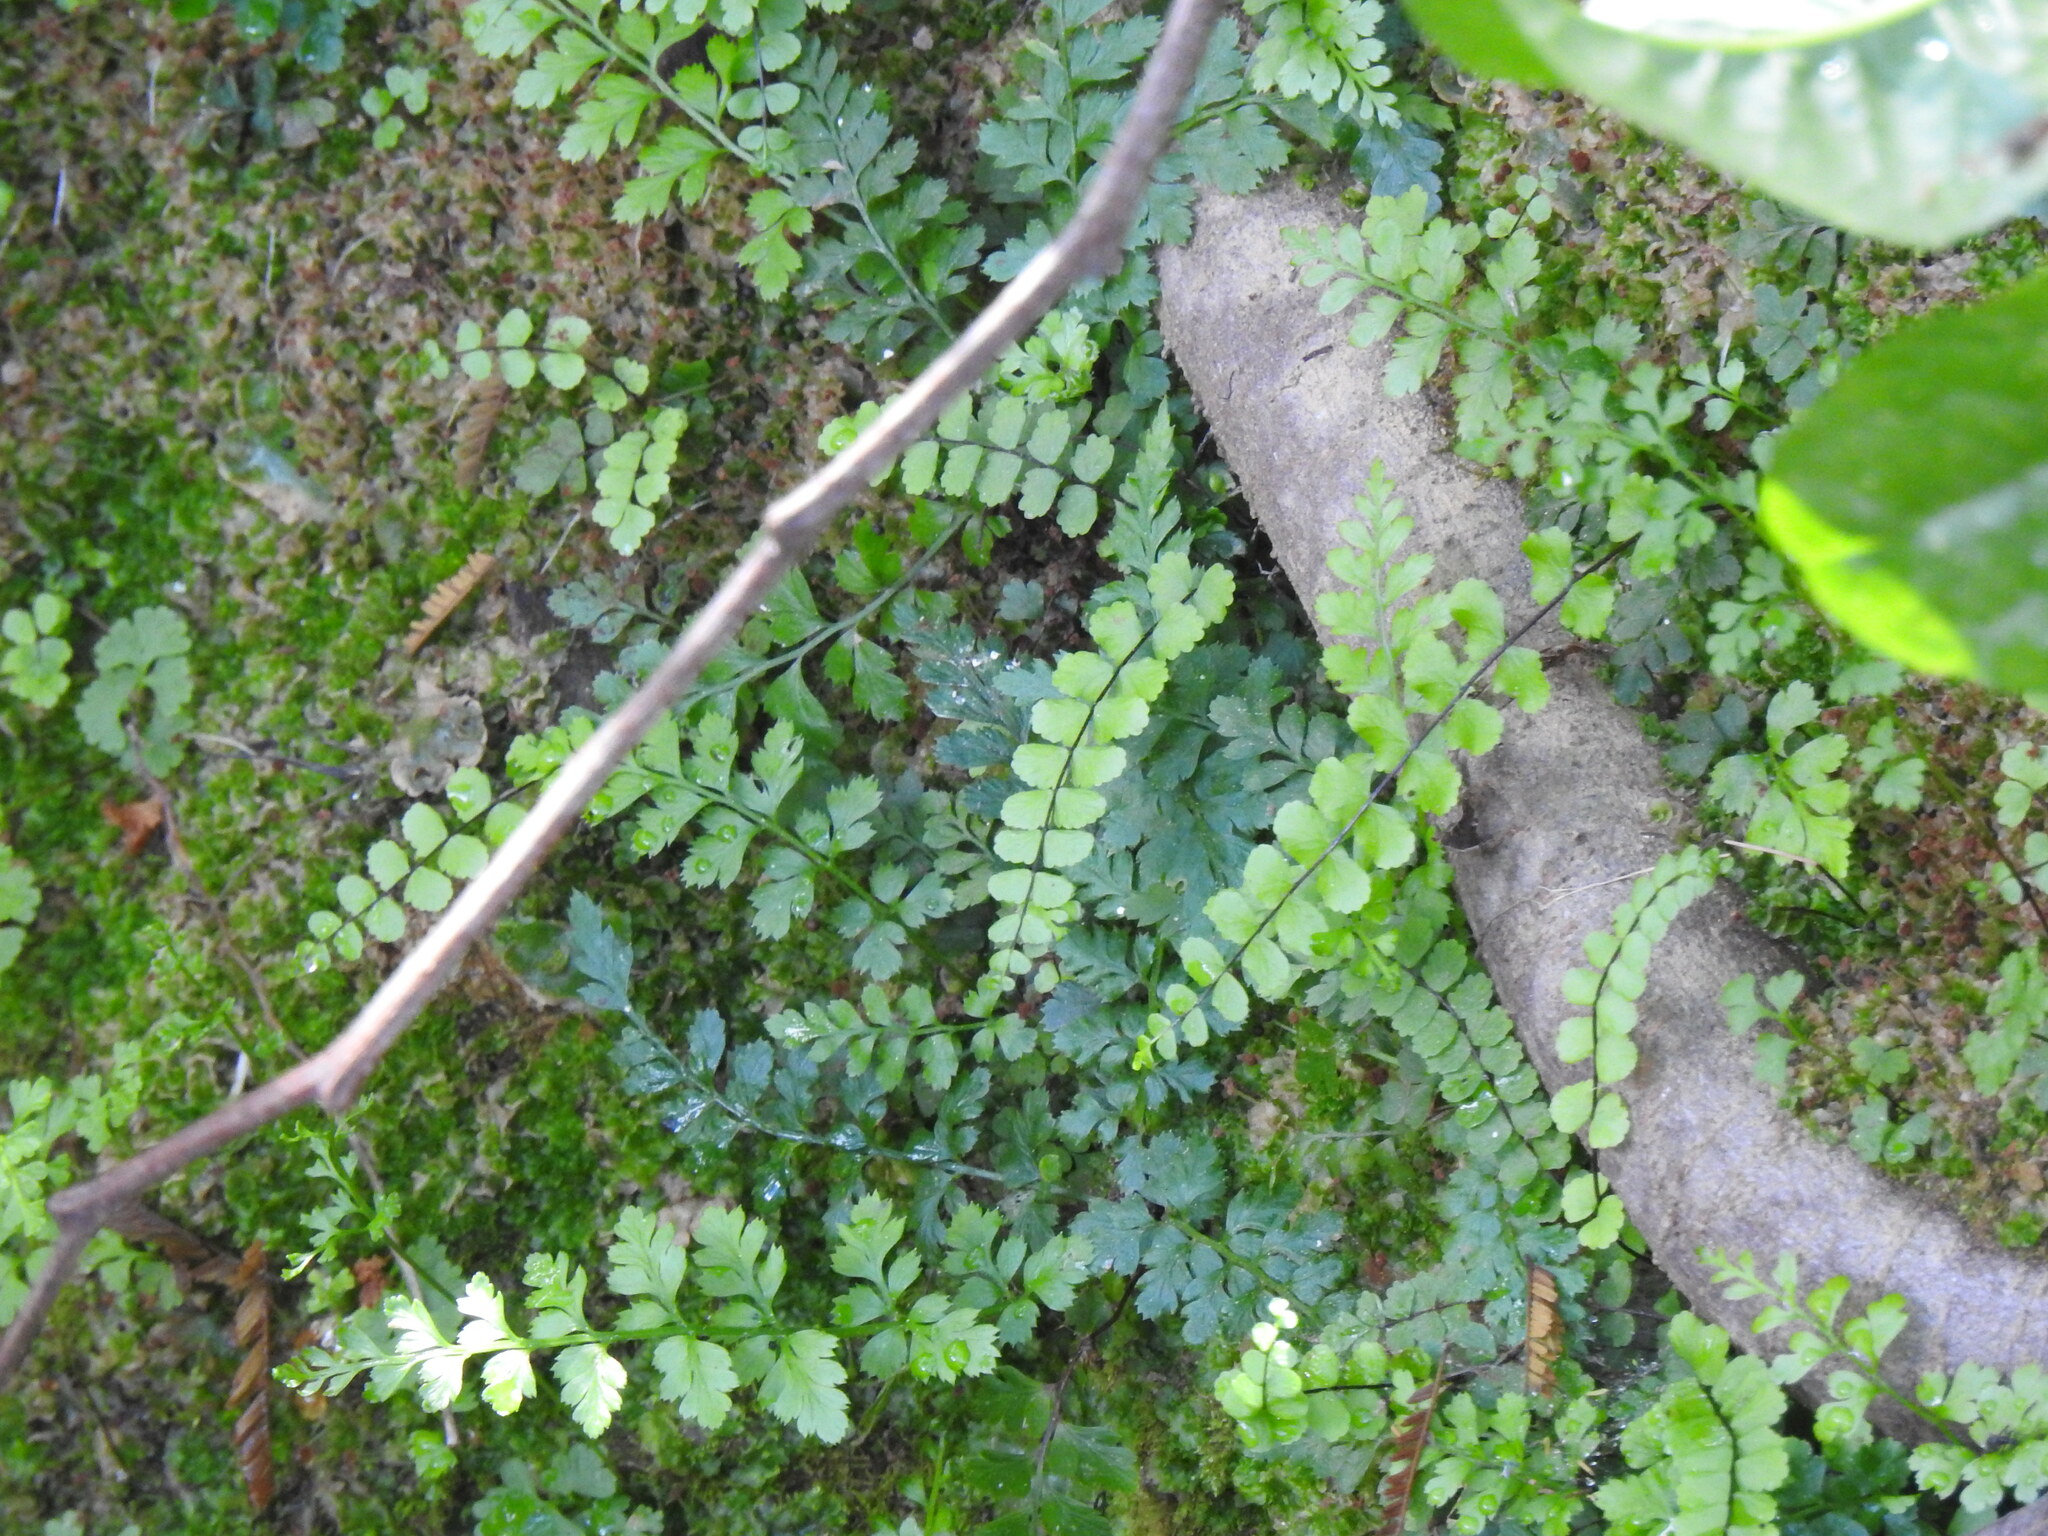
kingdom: Plantae
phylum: Tracheophyta
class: Polypodiopsida
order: Polypodiales
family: Aspleniaceae
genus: Asplenium
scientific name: Asplenium trichomanes
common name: Maidenhair spleenwort
